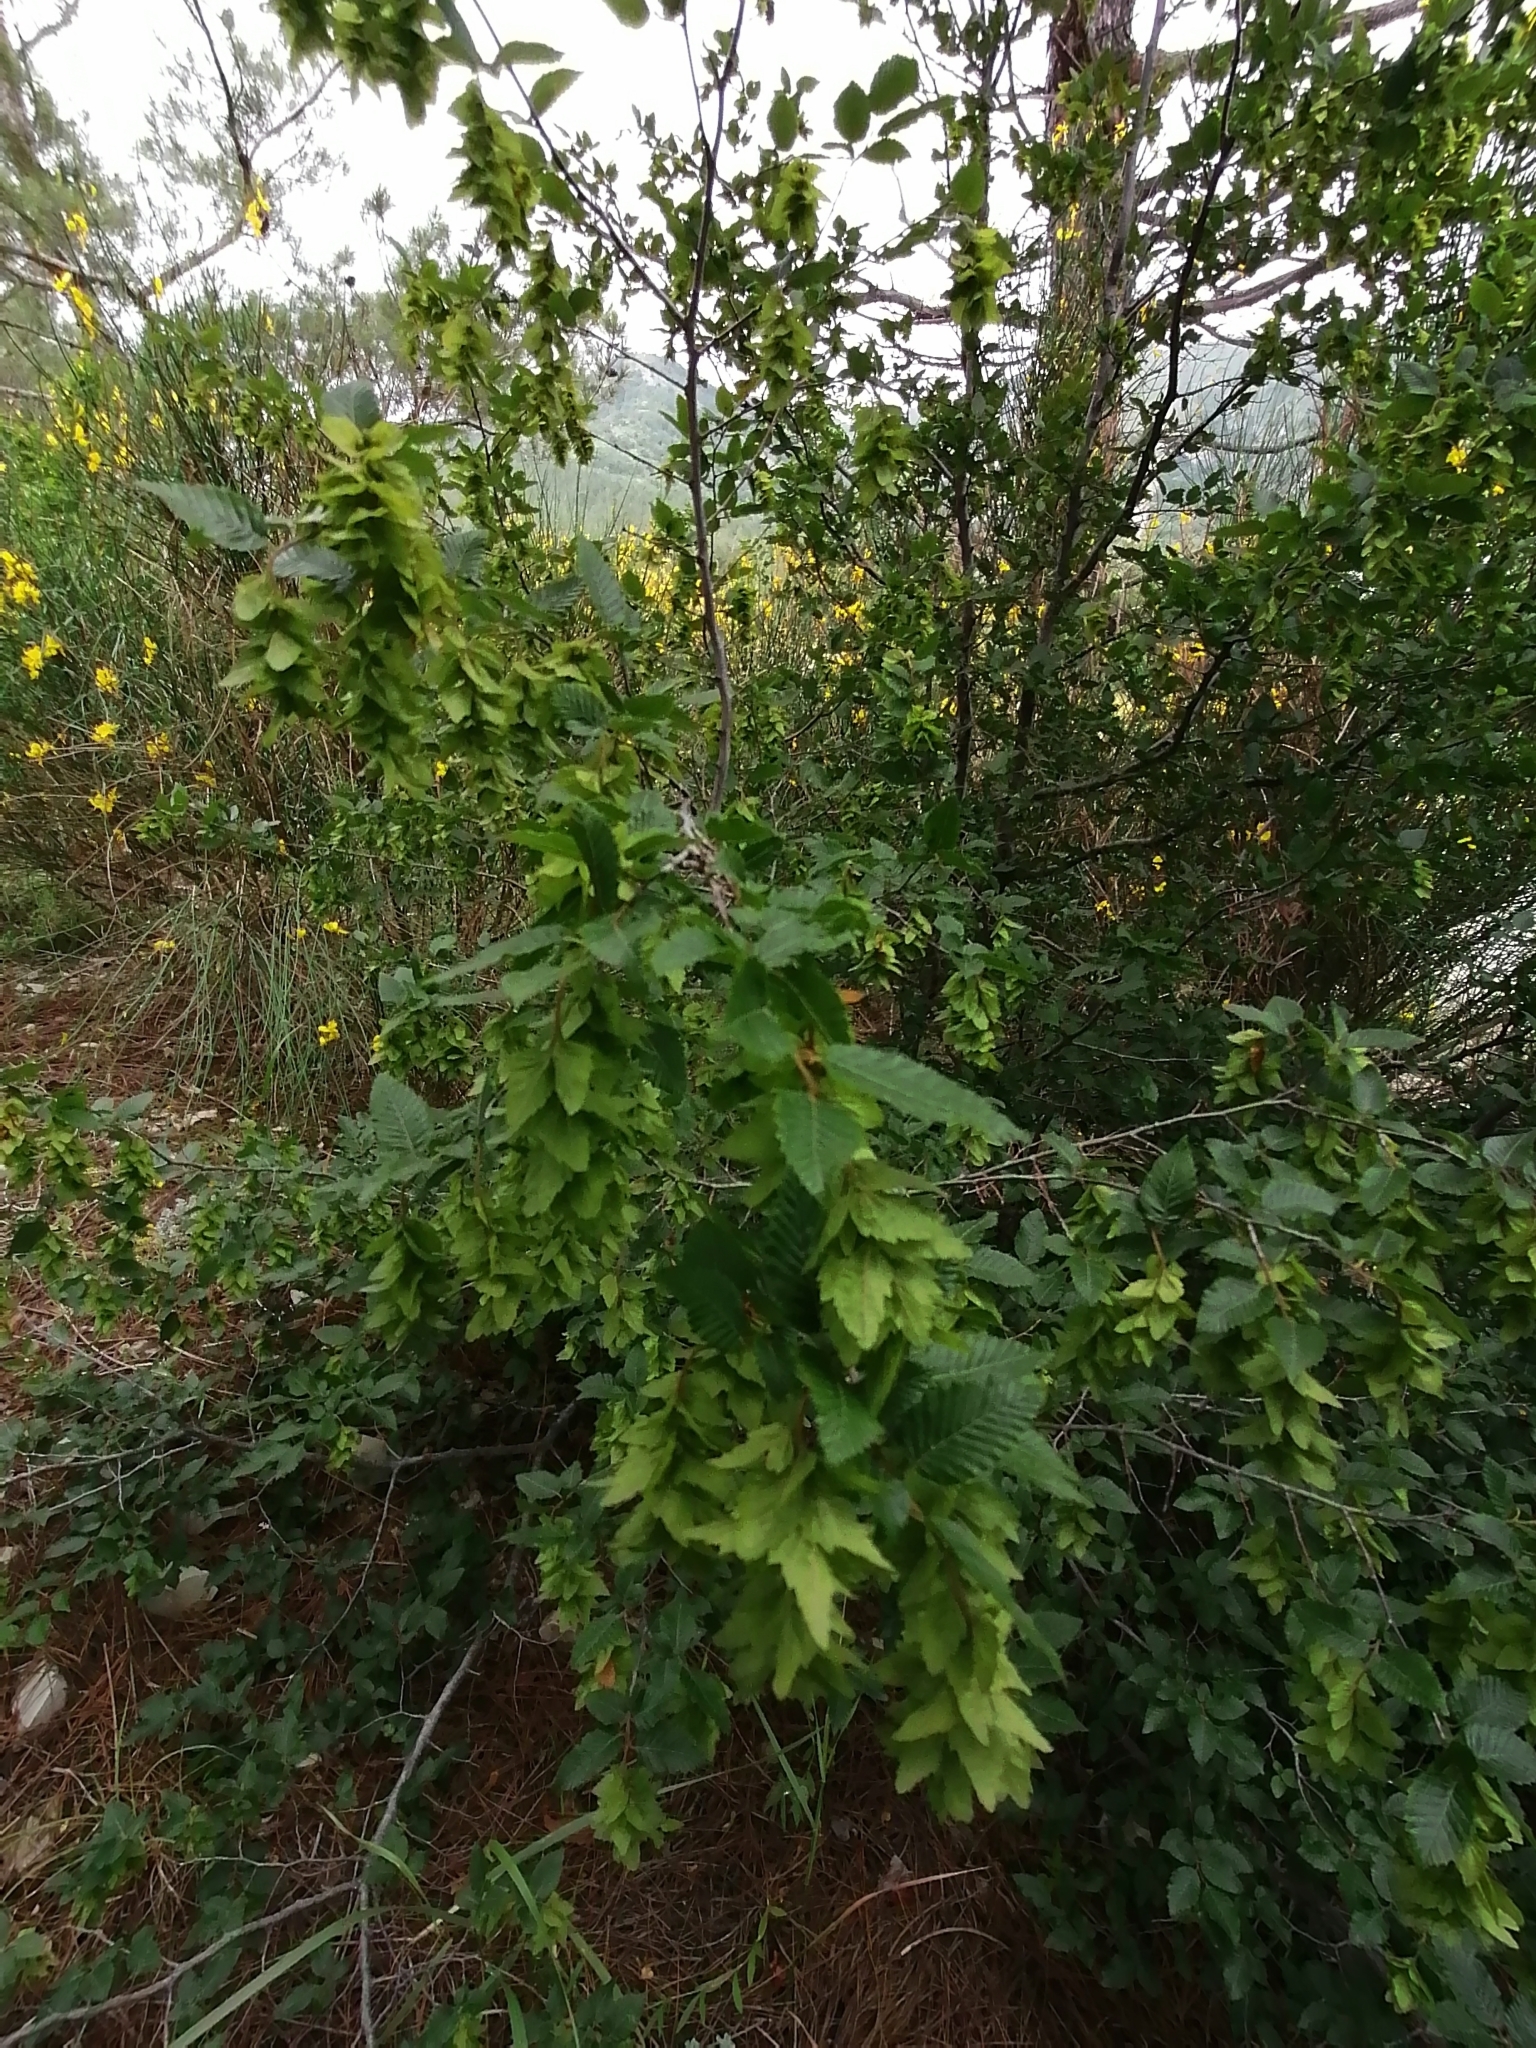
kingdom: Plantae
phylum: Tracheophyta
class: Magnoliopsida
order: Fagales
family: Betulaceae
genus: Carpinus
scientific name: Carpinus orientalis
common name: Eastern hornbeam
